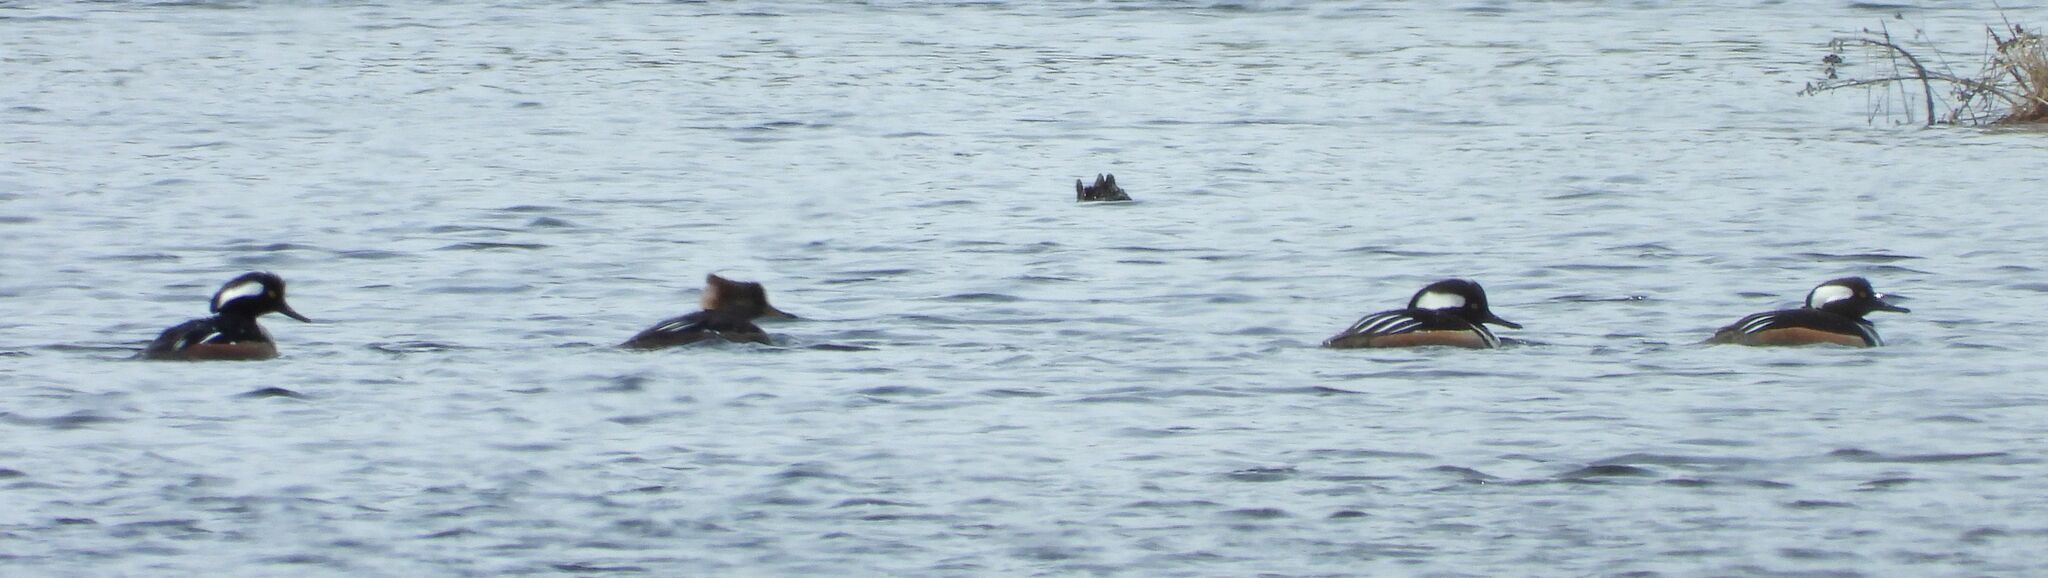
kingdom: Animalia
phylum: Chordata
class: Aves
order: Anseriformes
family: Anatidae
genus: Lophodytes
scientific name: Lophodytes cucullatus
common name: Hooded merganser
